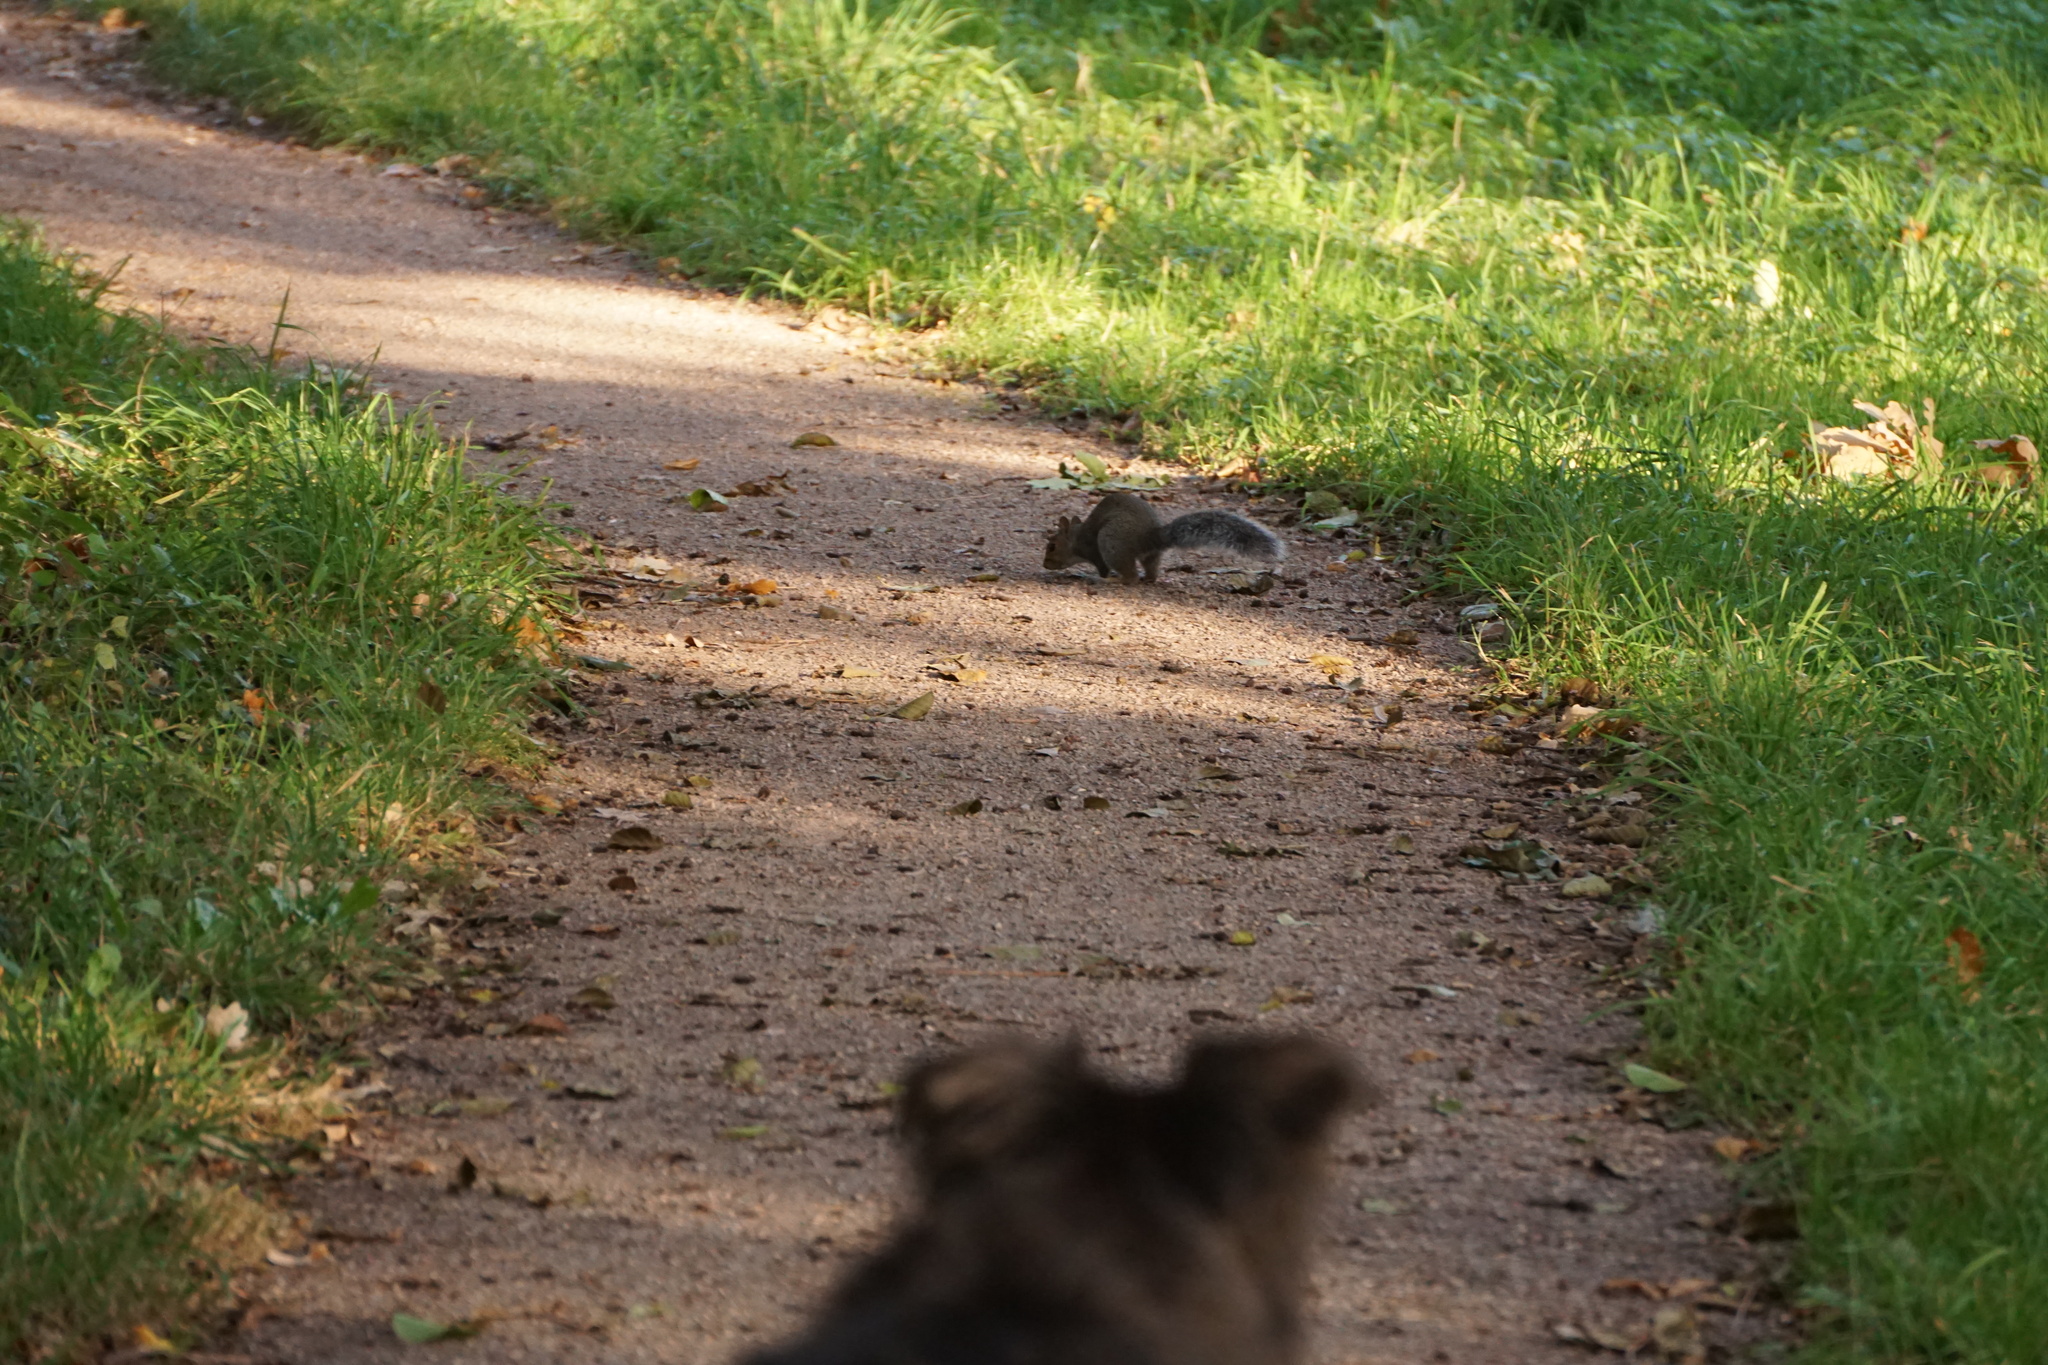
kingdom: Animalia
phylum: Chordata
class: Mammalia
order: Rodentia
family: Sciuridae
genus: Sciurus
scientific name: Sciurus carolinensis
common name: Eastern gray squirrel
